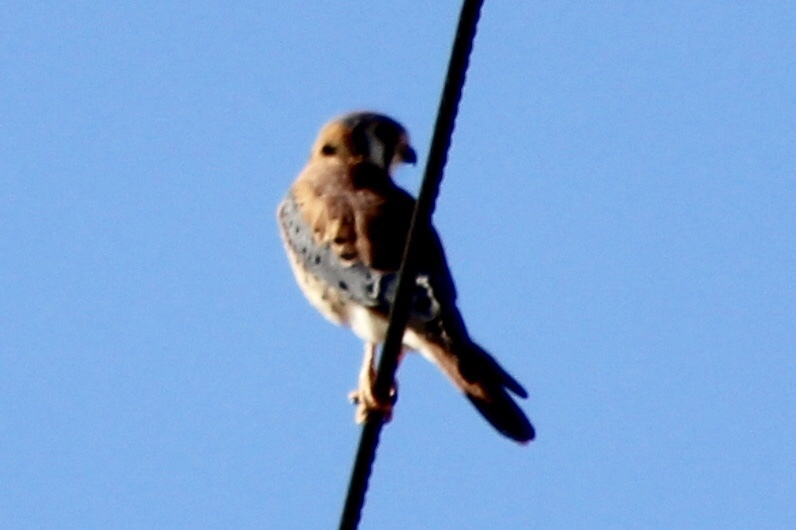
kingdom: Animalia
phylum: Chordata
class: Aves
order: Falconiformes
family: Falconidae
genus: Falco
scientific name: Falco sparverius
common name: American kestrel
